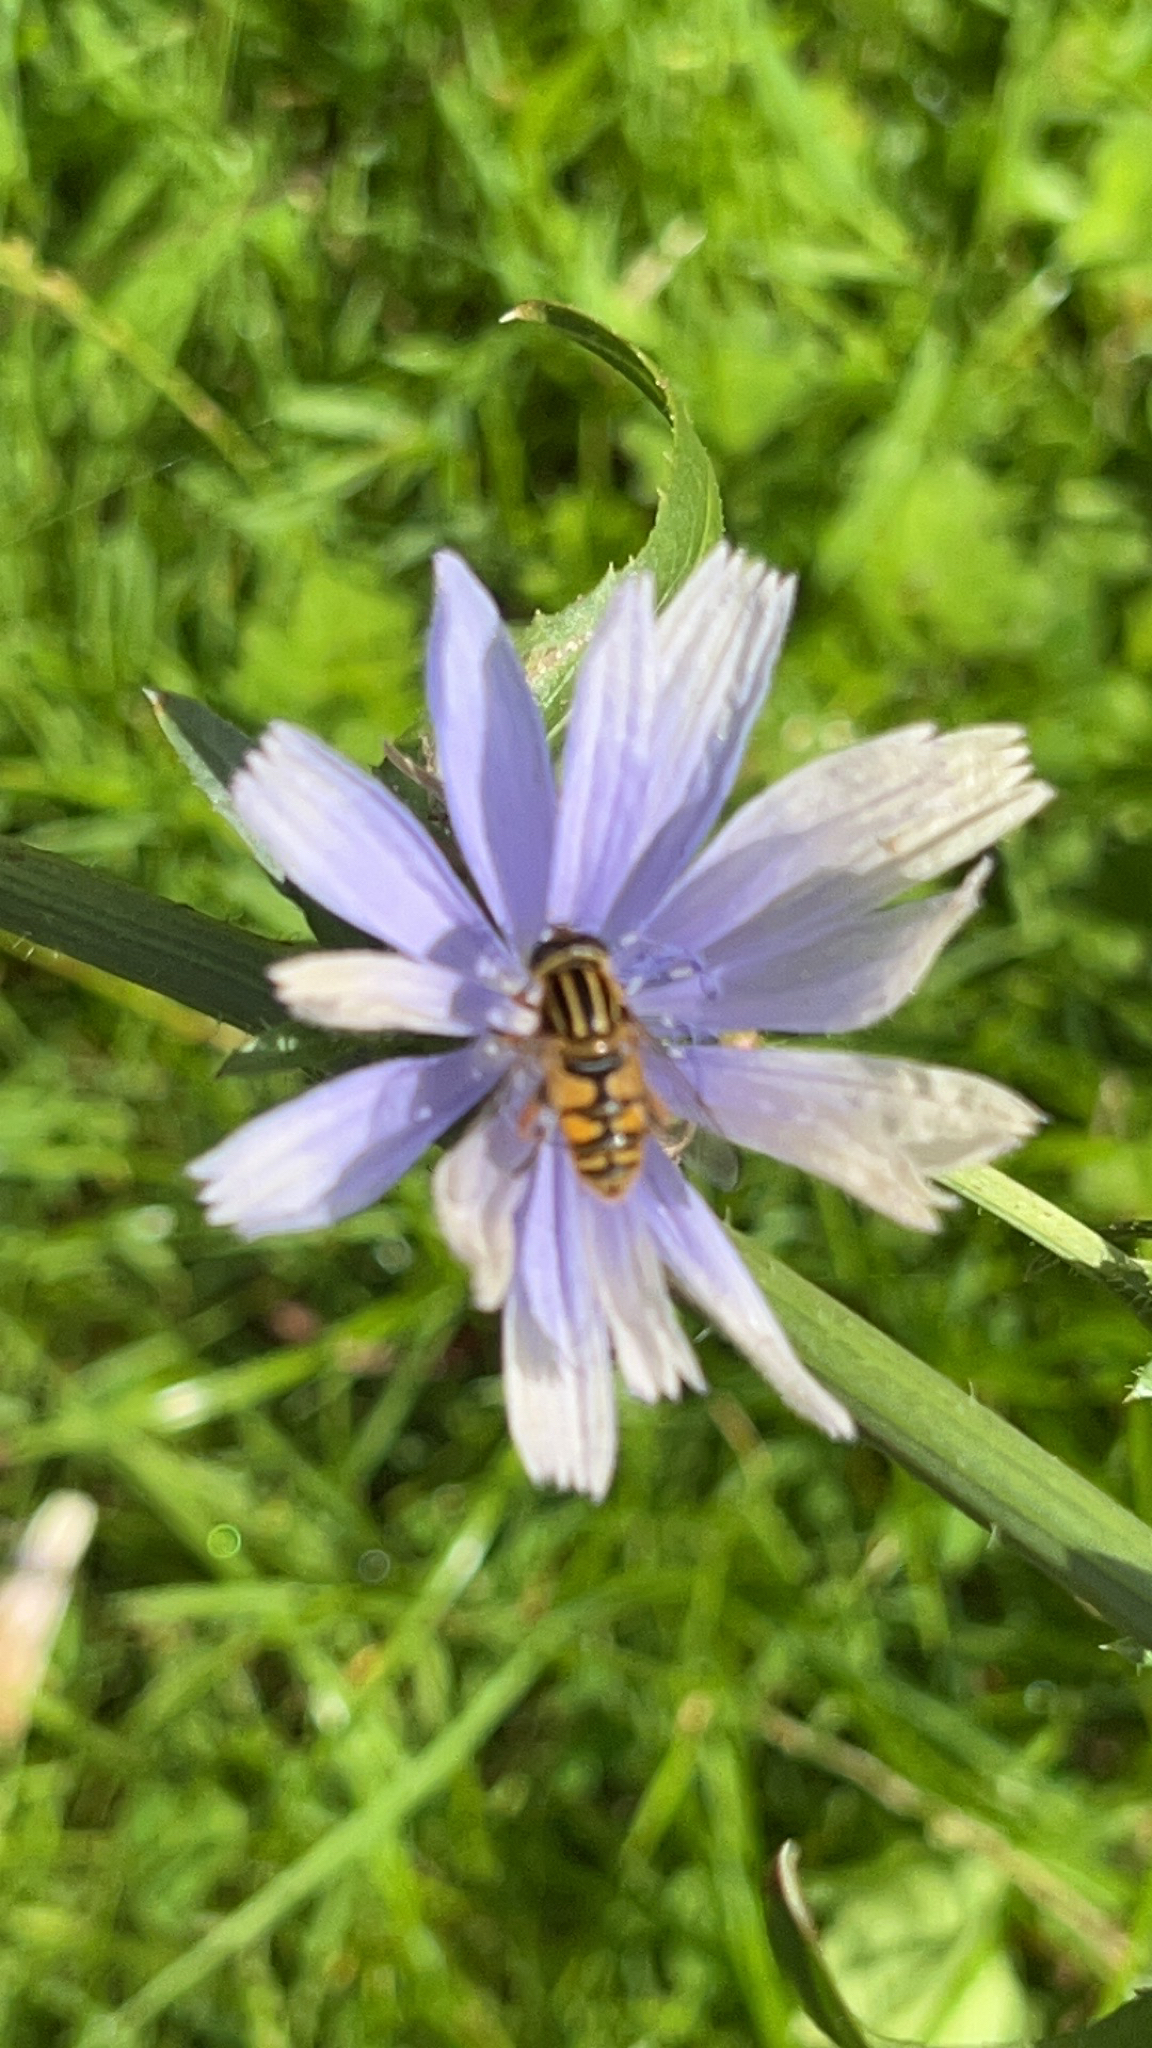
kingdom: Animalia
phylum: Arthropoda
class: Insecta
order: Diptera
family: Syrphidae
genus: Helophilus
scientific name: Helophilus pendulus
